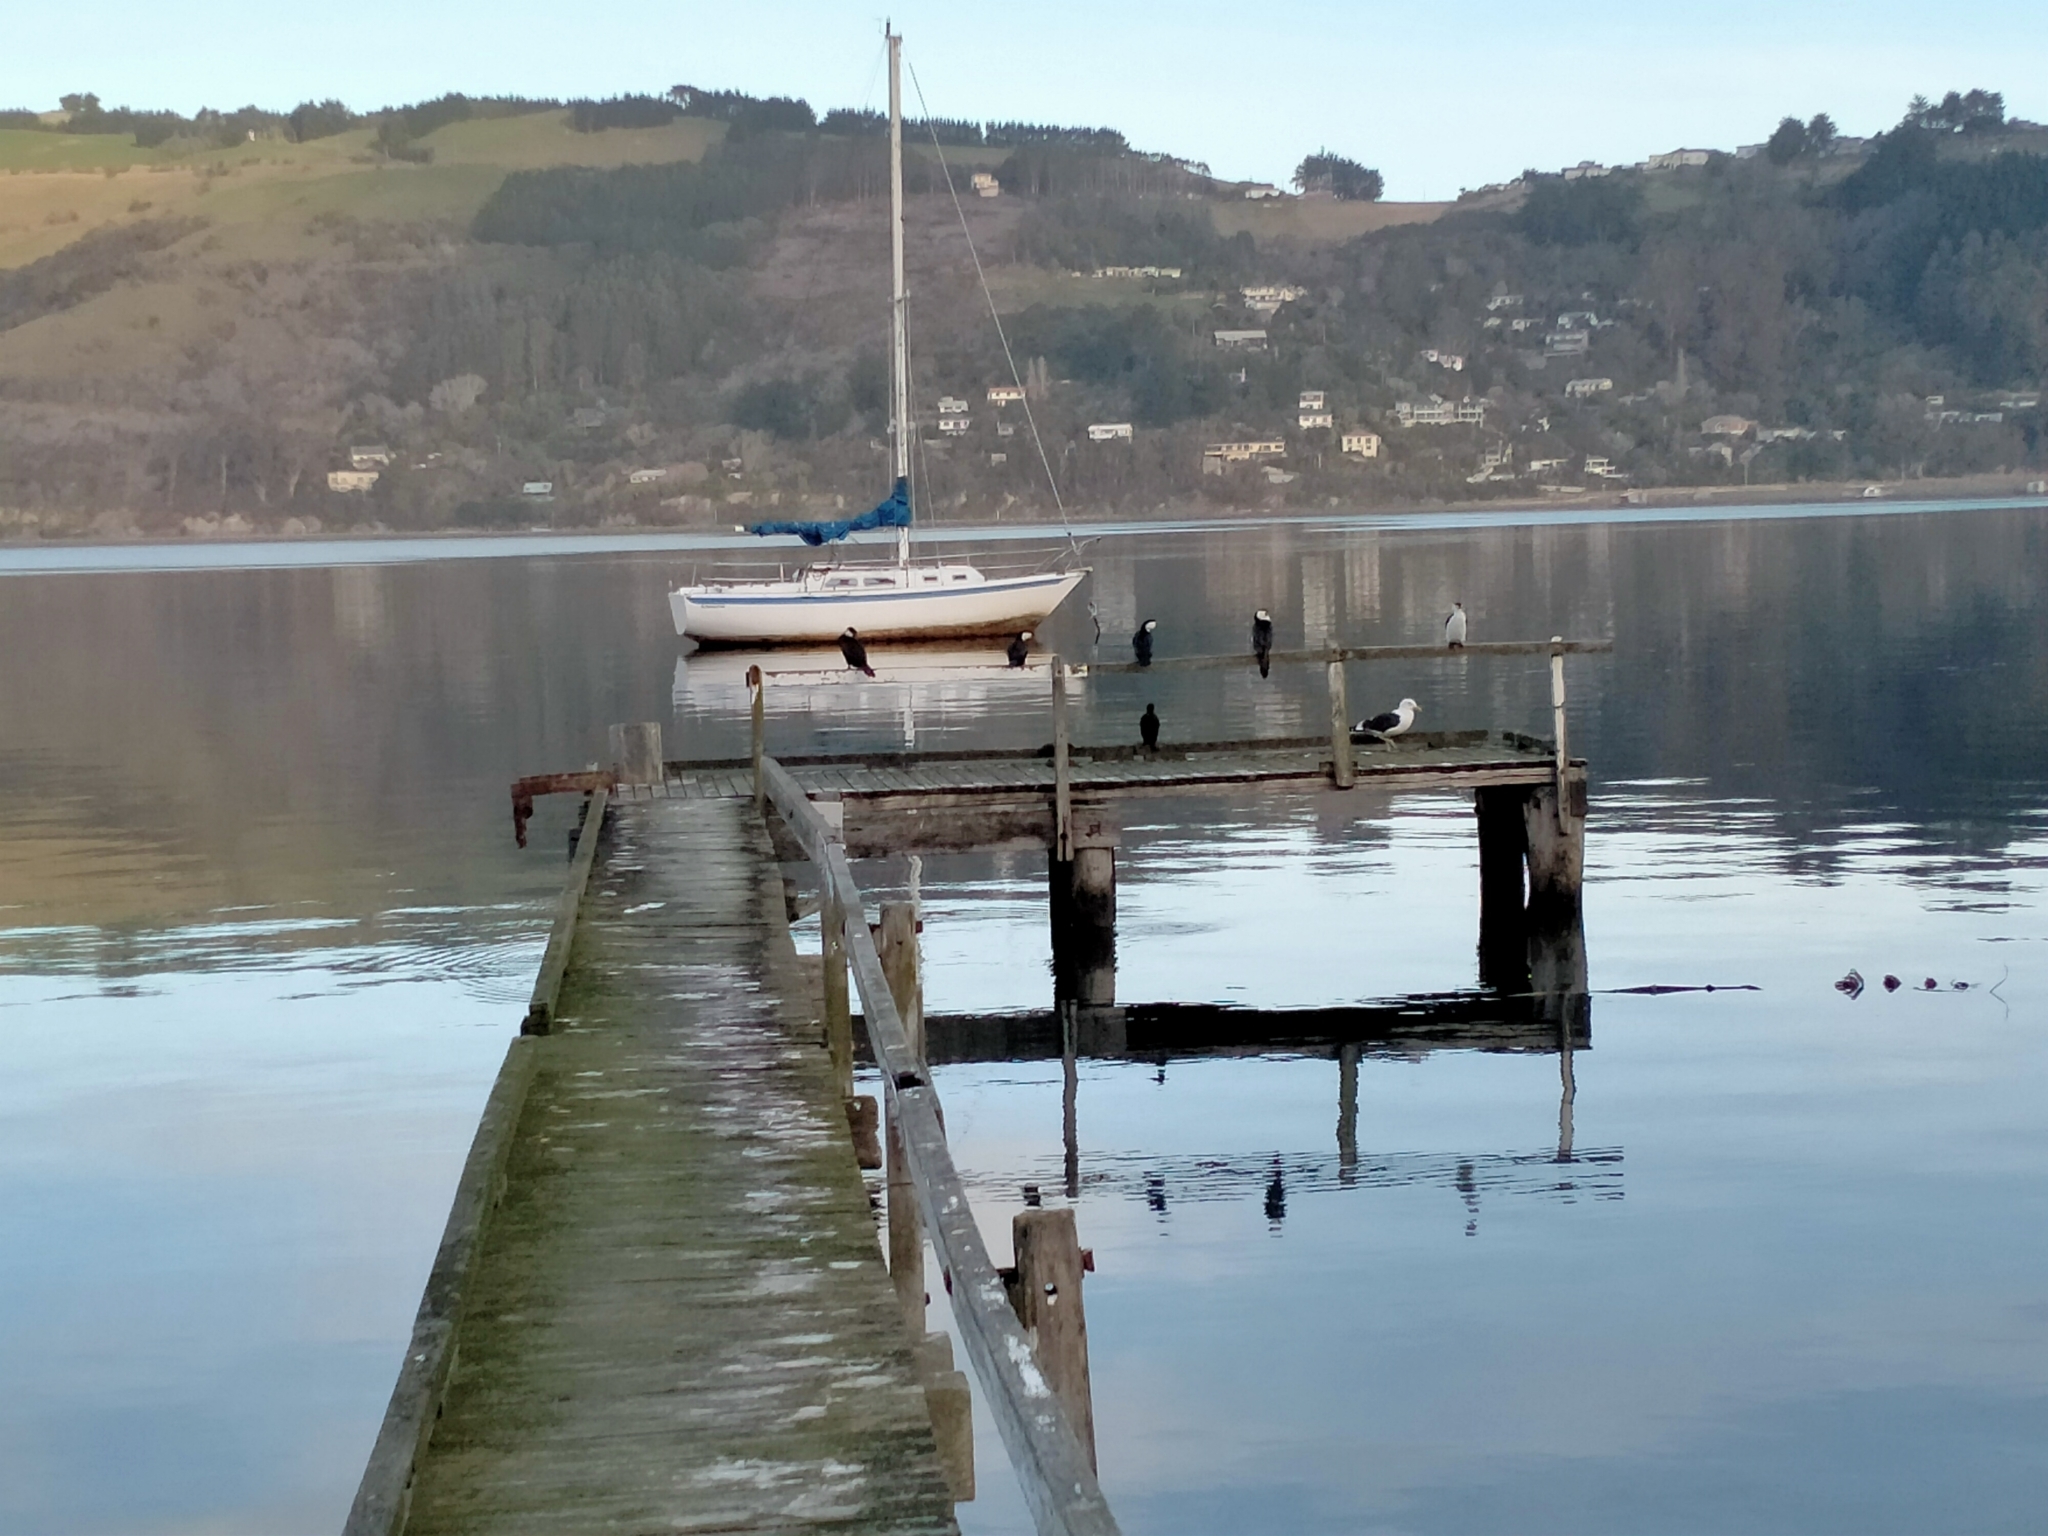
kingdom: Animalia
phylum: Chordata
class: Aves
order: Suliformes
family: Phalacrocoracidae
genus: Microcarbo
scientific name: Microcarbo melanoleucos
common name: Little pied cormorant
